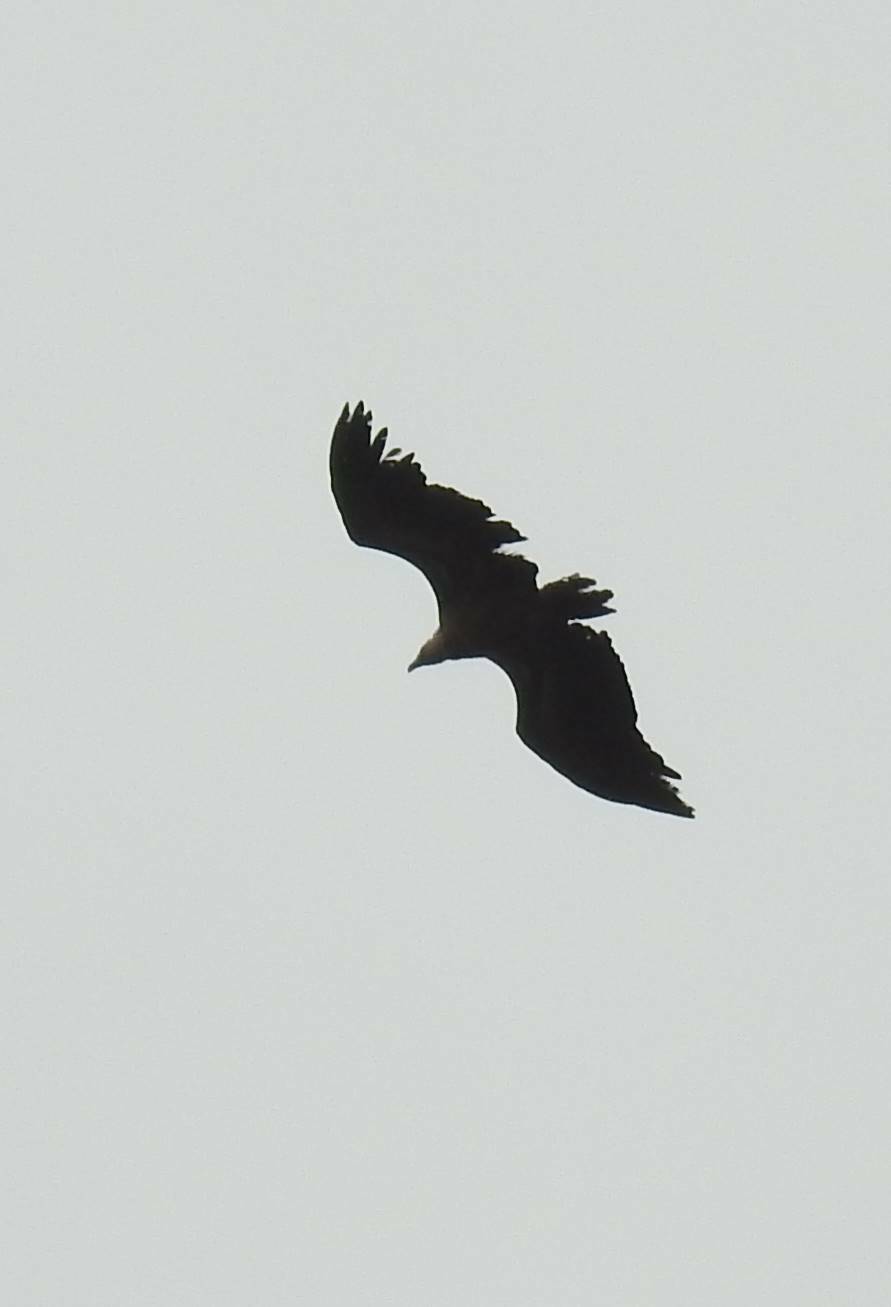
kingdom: Animalia
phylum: Chordata
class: Aves
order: Accipitriformes
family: Accipitridae
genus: Gyps
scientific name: Gyps fulvus
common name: Griffon vulture
